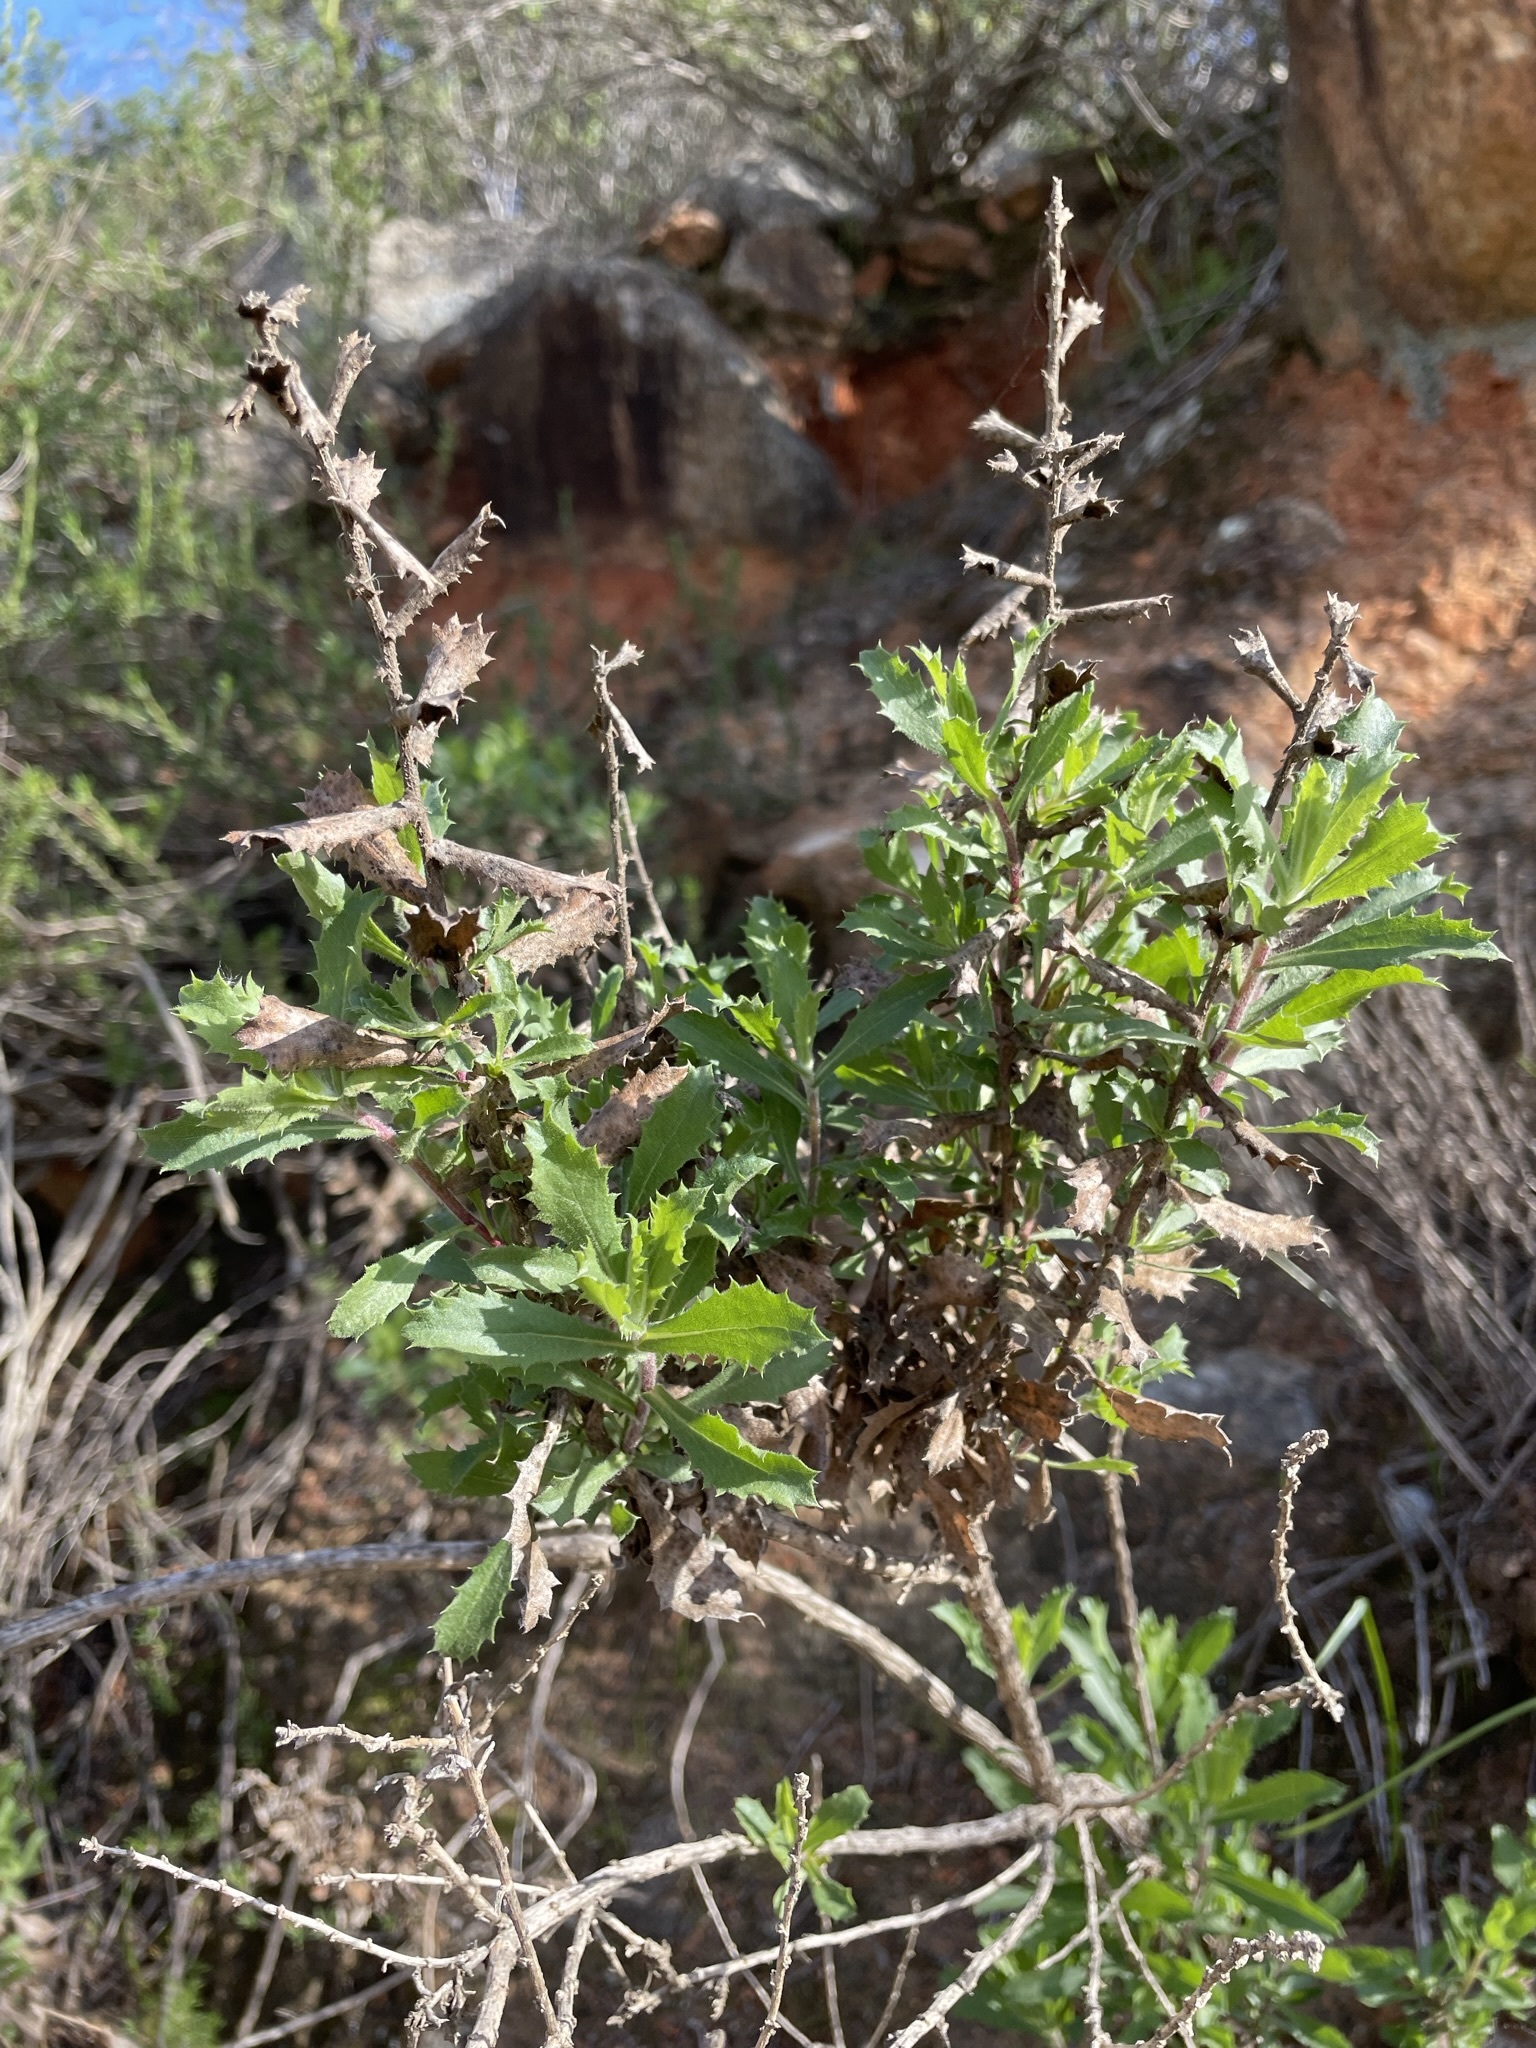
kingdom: Plantae
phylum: Tracheophyta
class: Magnoliopsida
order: Asterales
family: Asteraceae
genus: Hazardia
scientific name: Hazardia squarrosa
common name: Saw-tooth goldenbush
